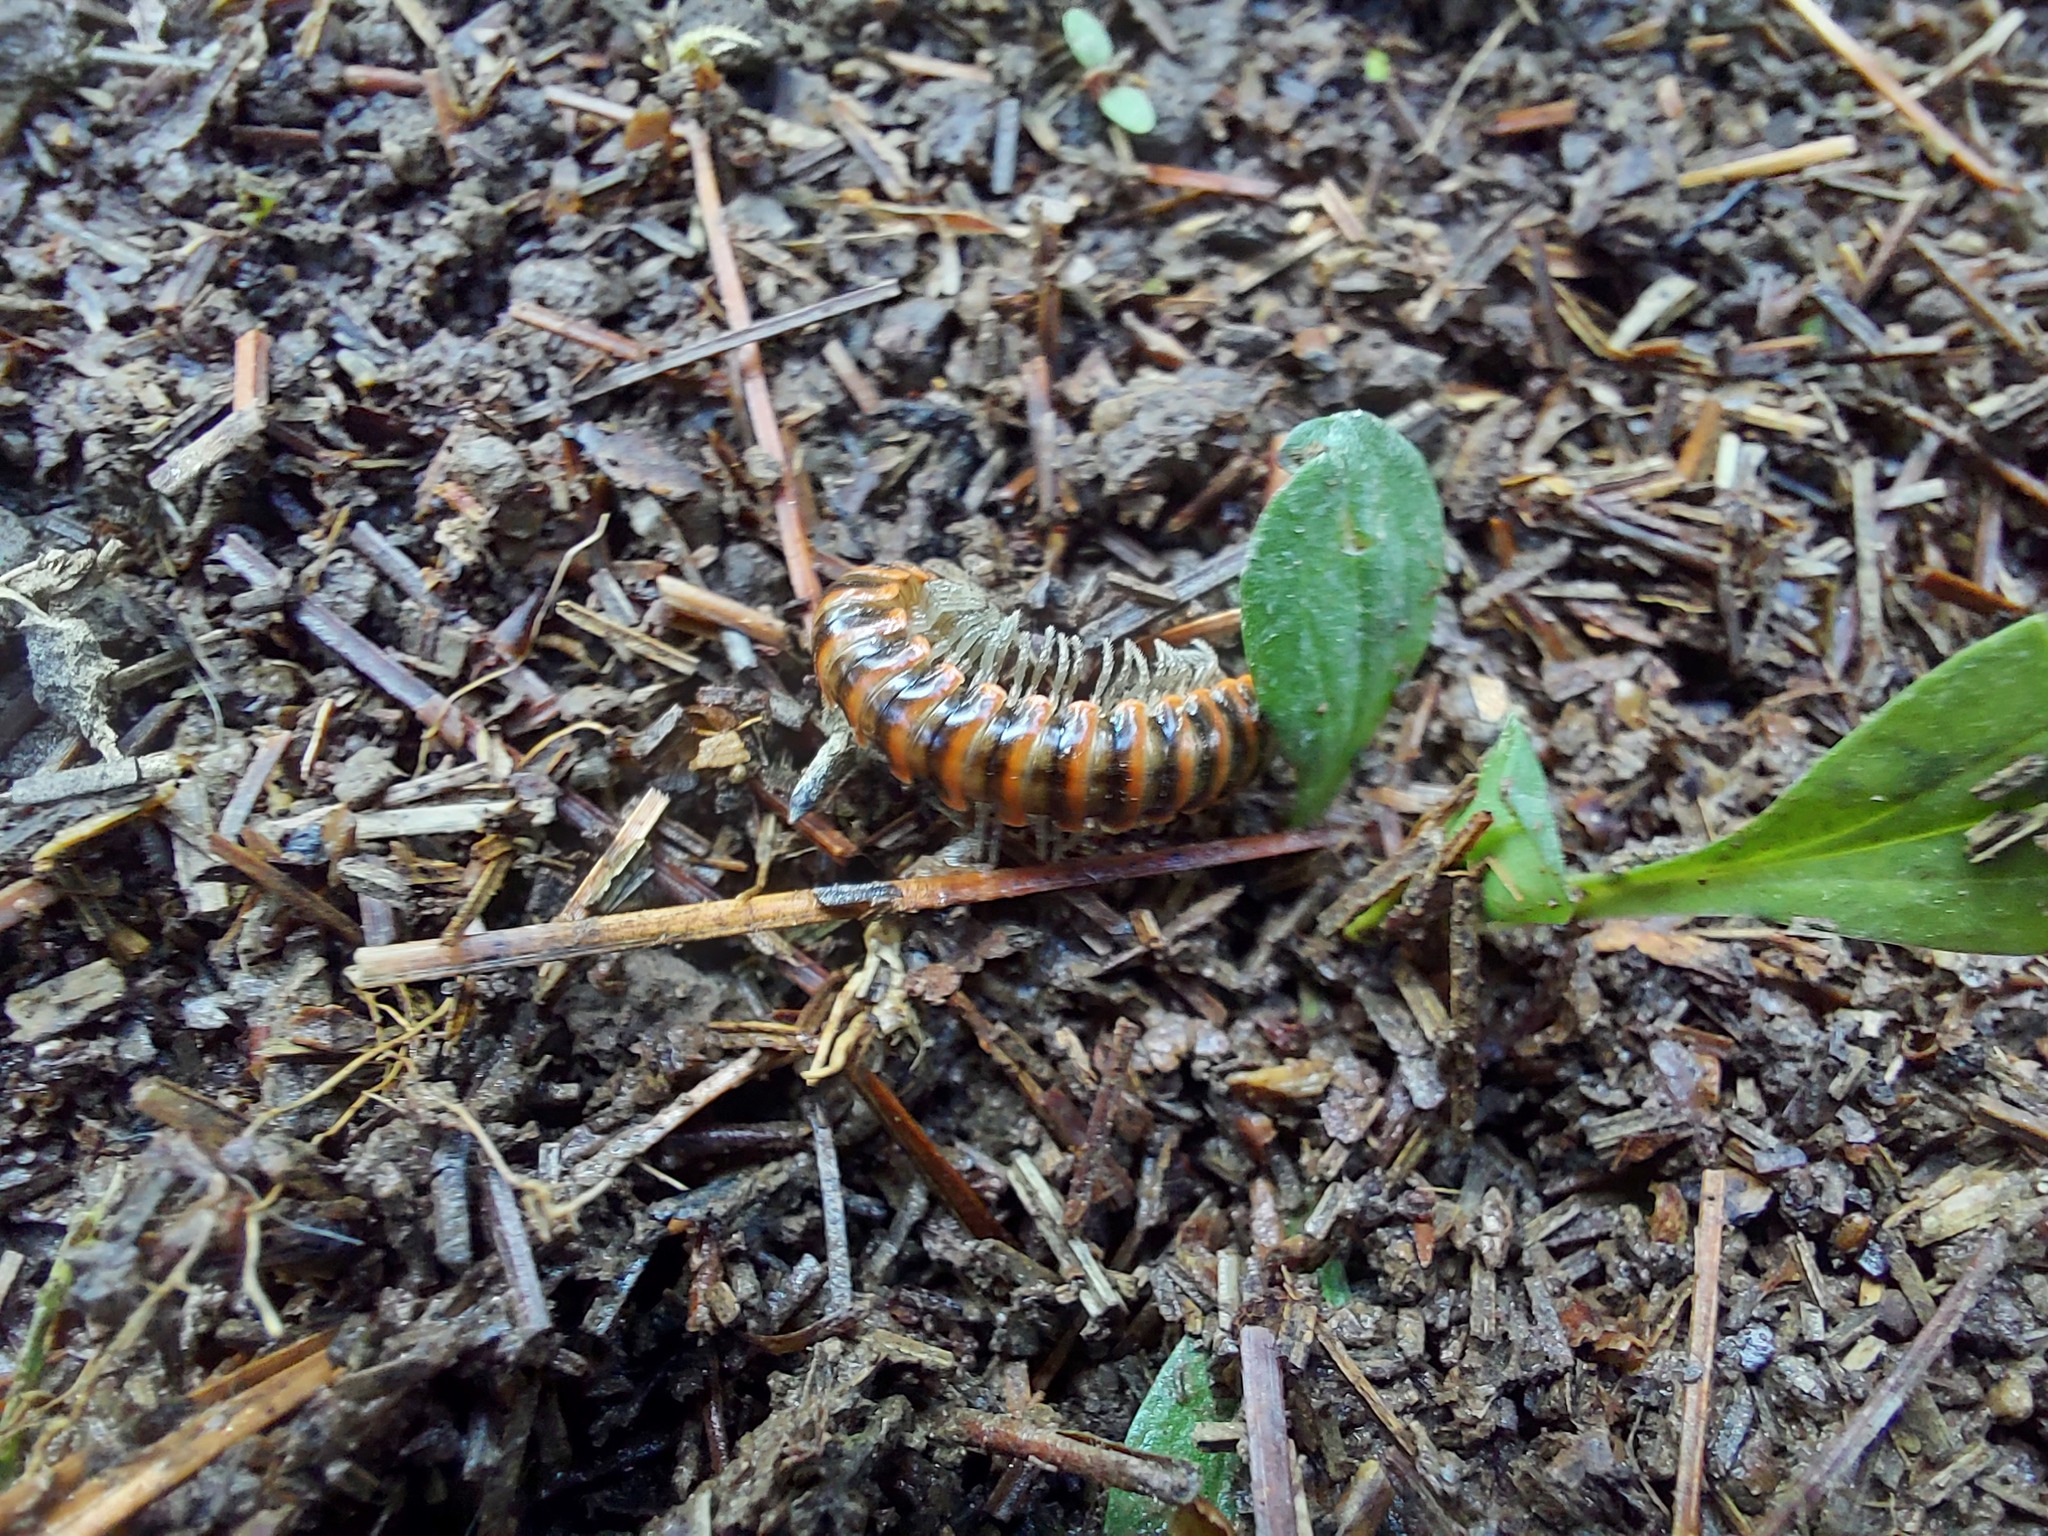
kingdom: Animalia
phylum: Arthropoda
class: Diplopoda
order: Polydesmida
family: Xystodesmidae
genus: Oenomaea
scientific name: Oenomaea pulchella
